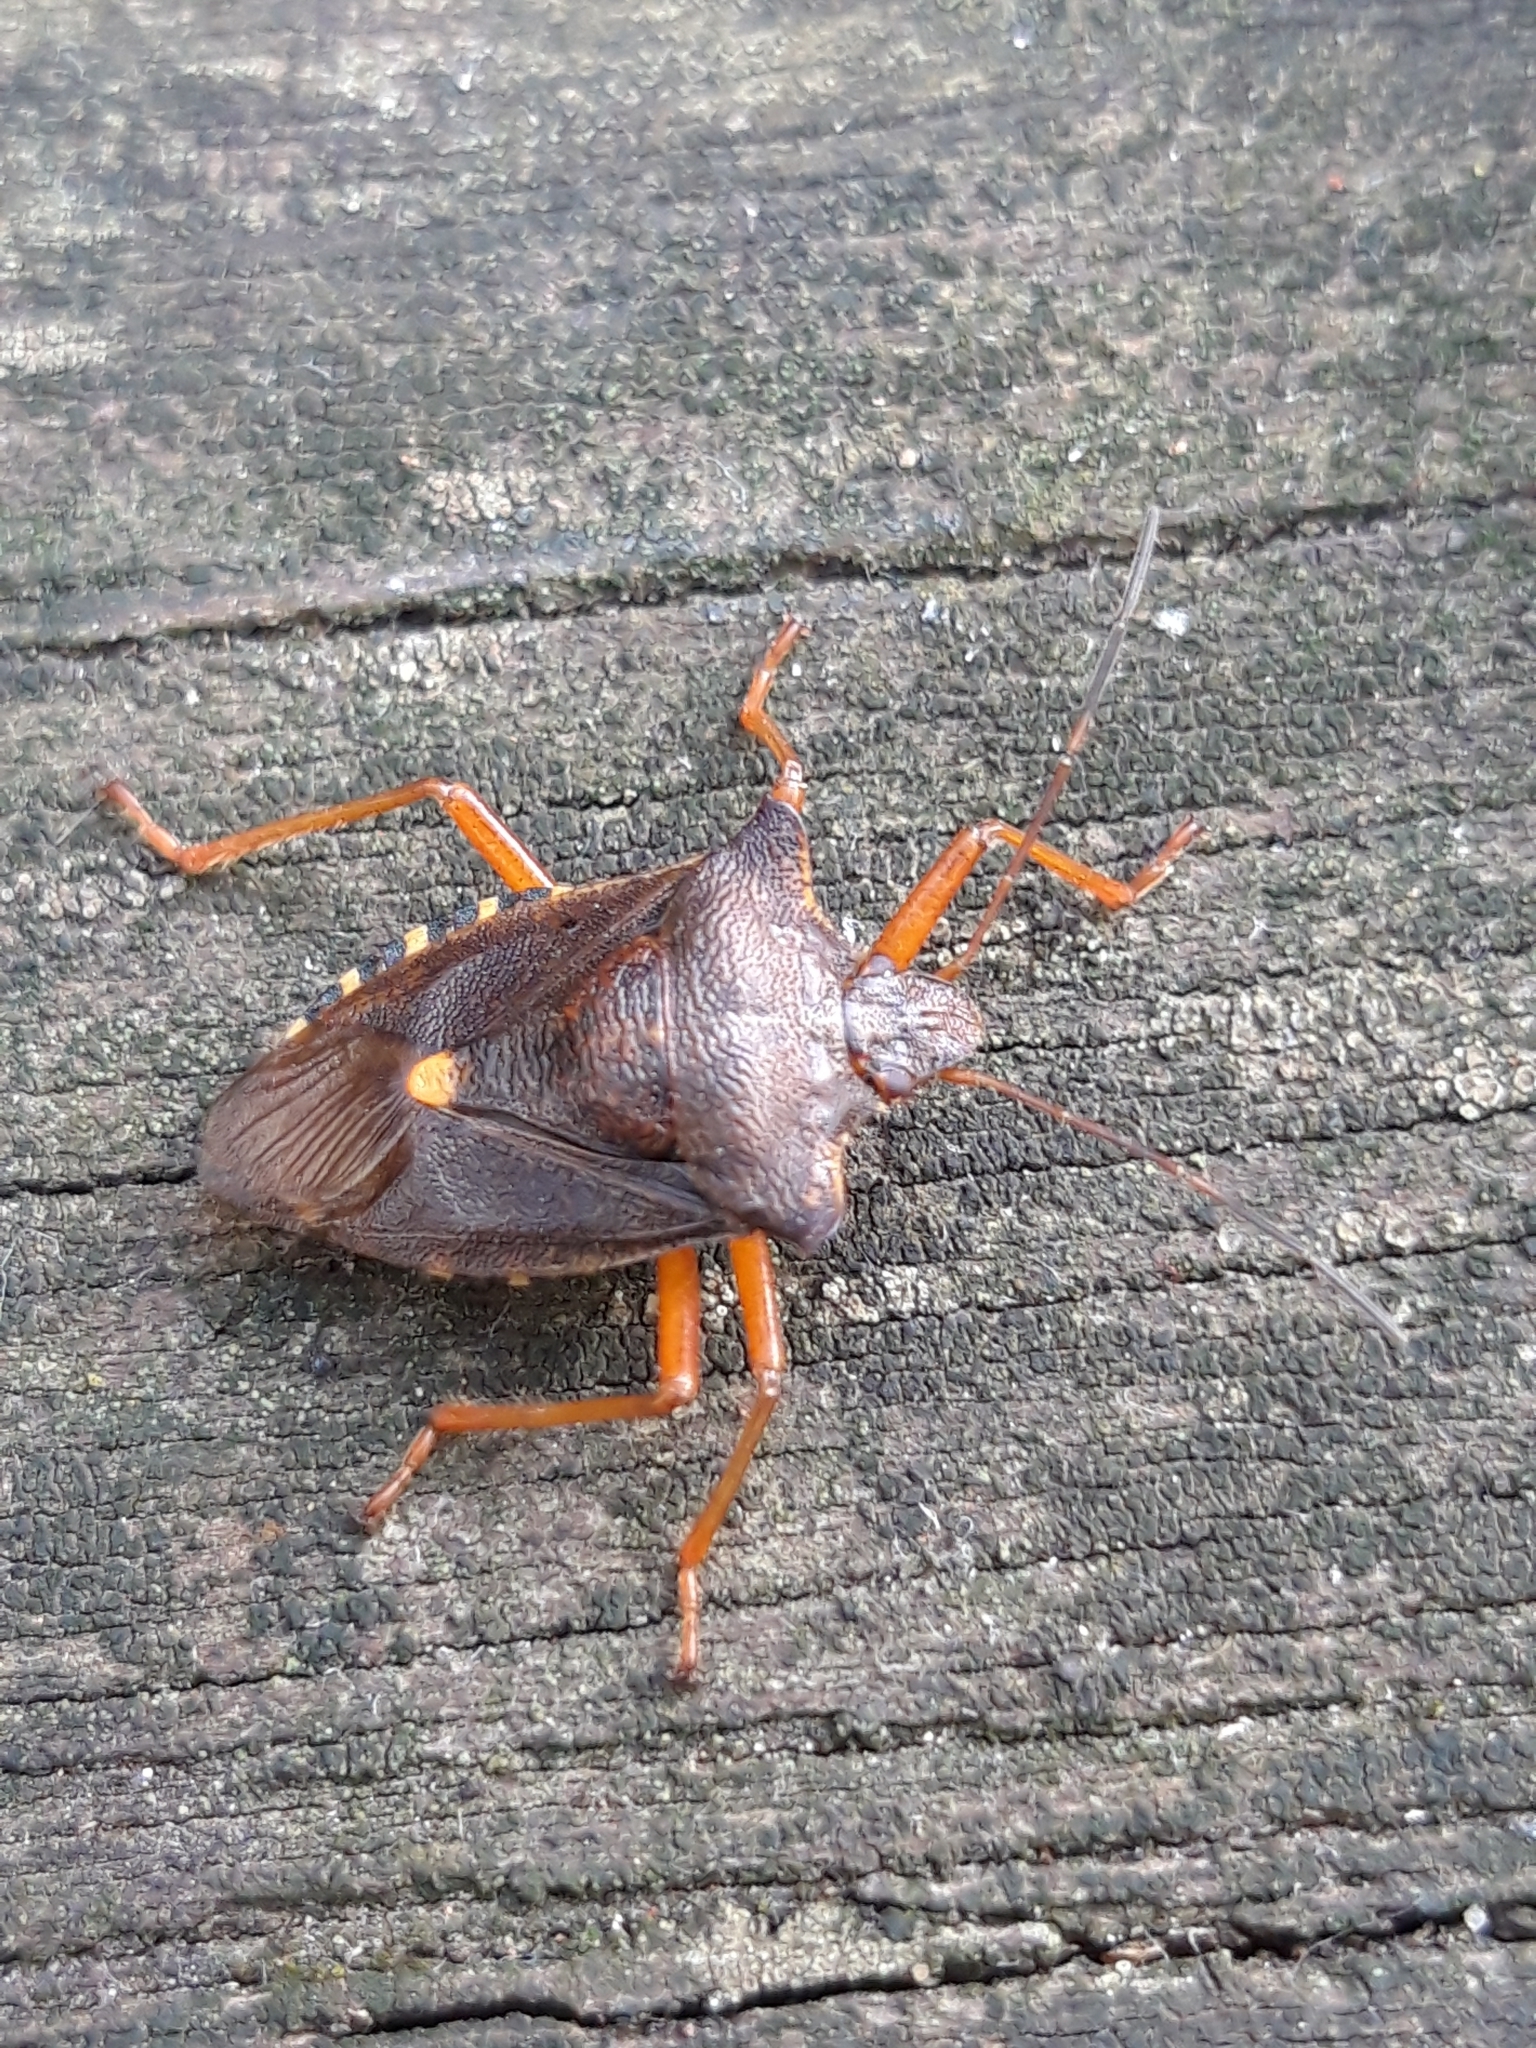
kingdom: Animalia
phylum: Arthropoda
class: Insecta
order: Hemiptera
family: Pentatomidae
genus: Pentatoma
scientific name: Pentatoma rufipes
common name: Forest bug
